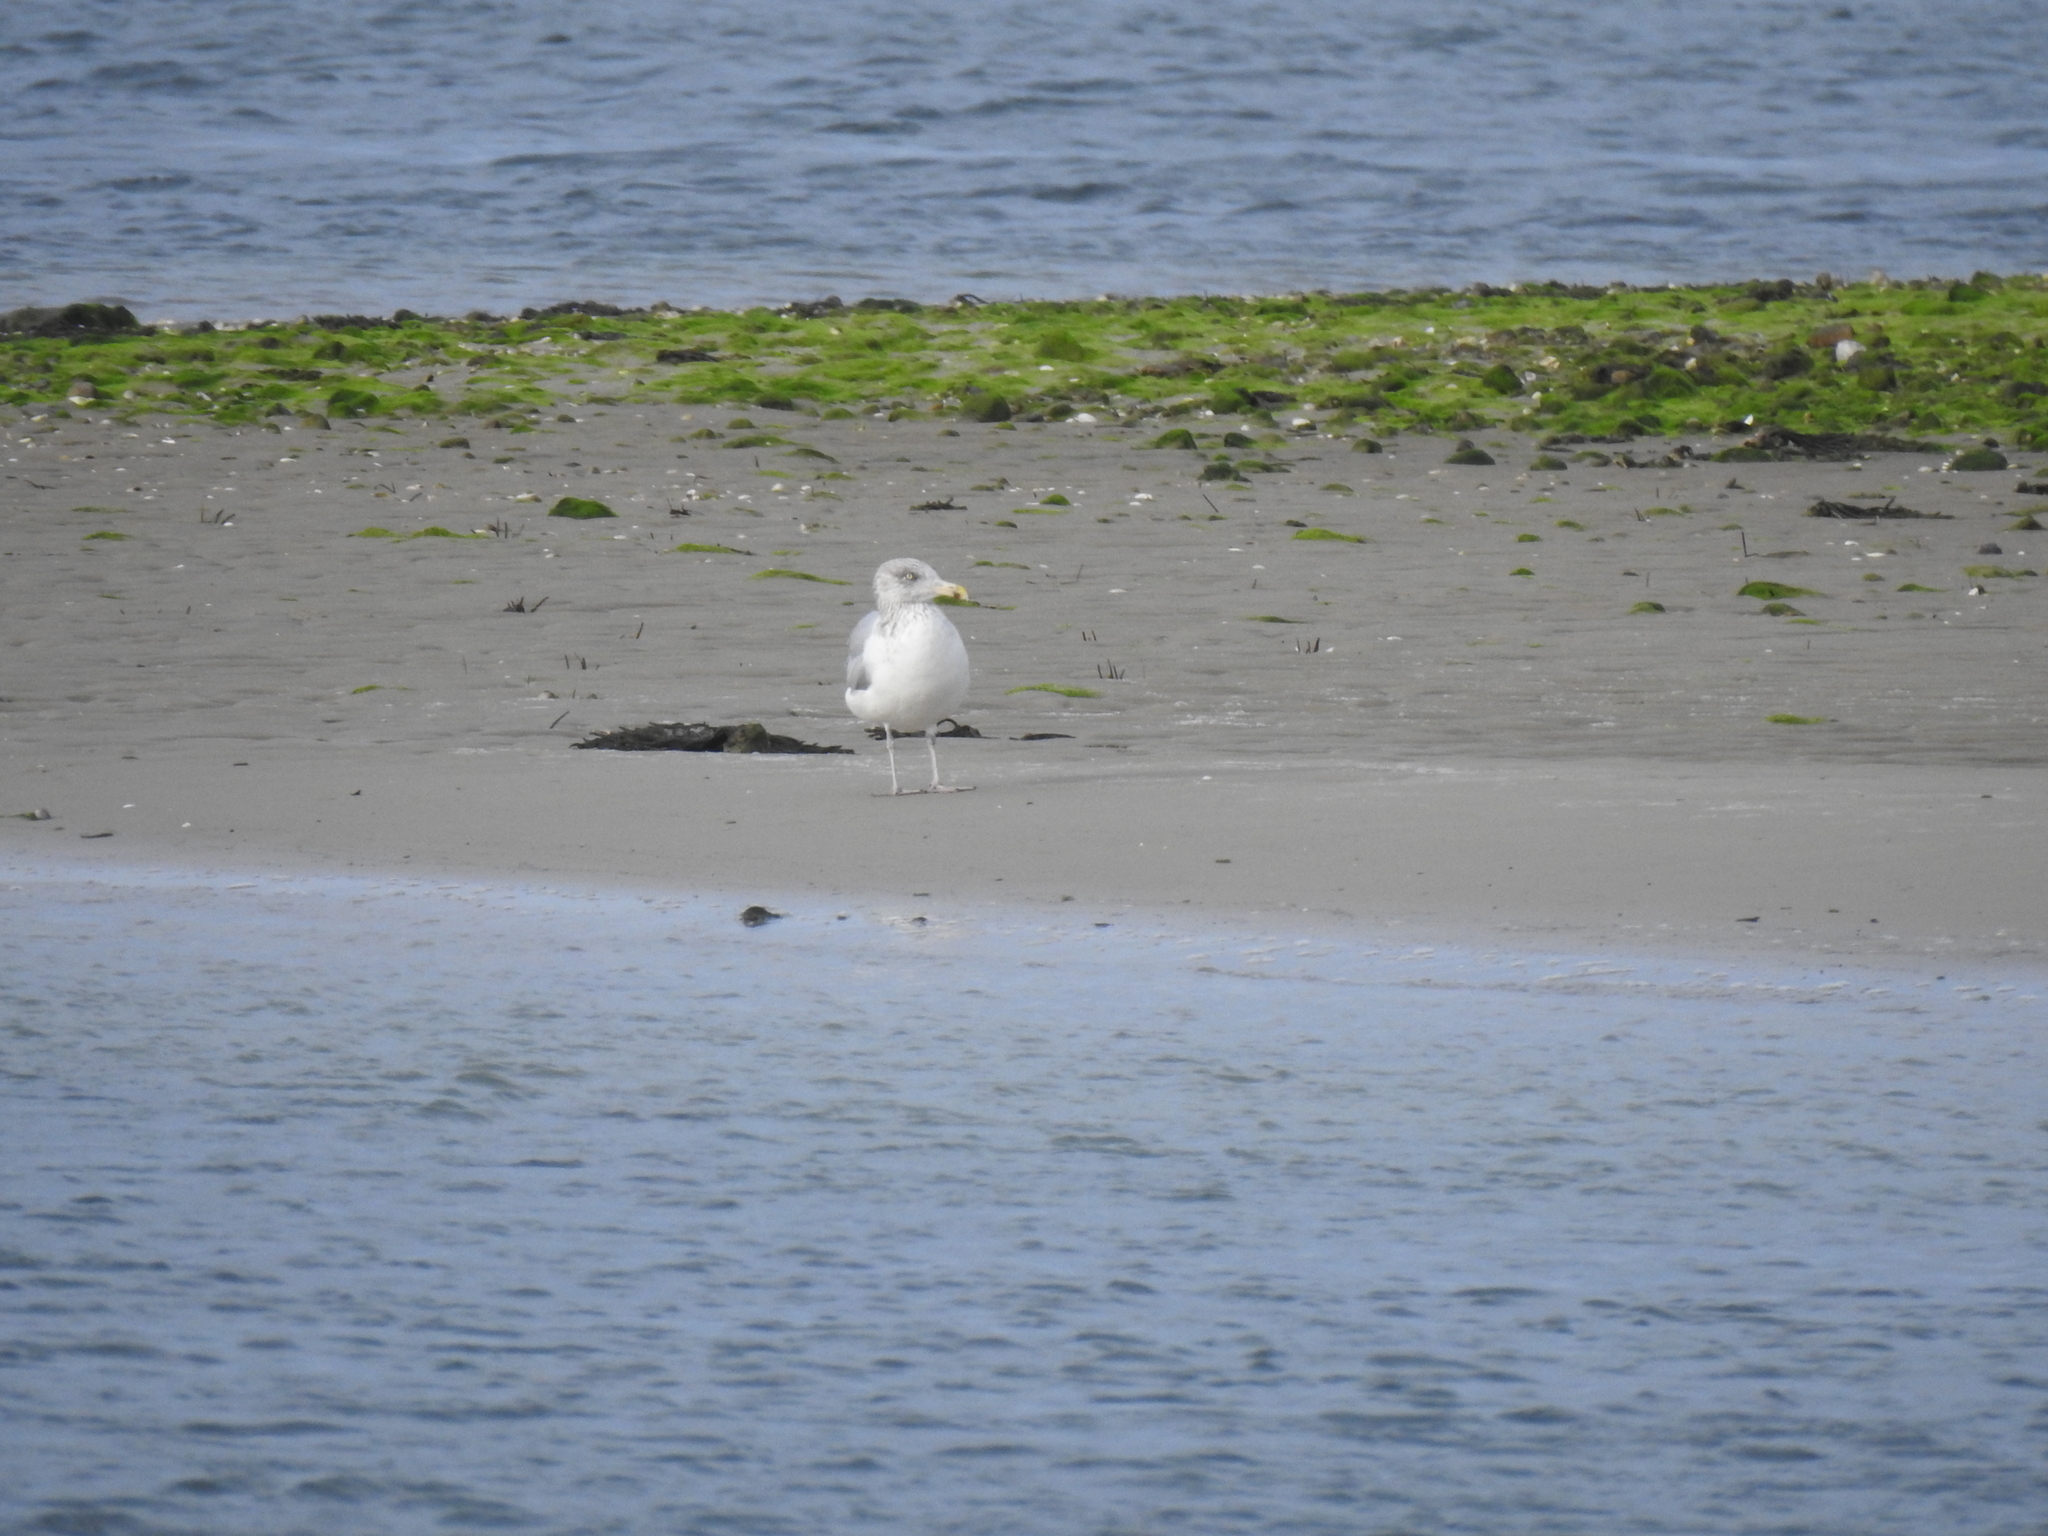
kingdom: Animalia
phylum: Chordata
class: Aves
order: Charadriiformes
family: Laridae
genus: Larus
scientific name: Larus argentatus
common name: Herring gull
